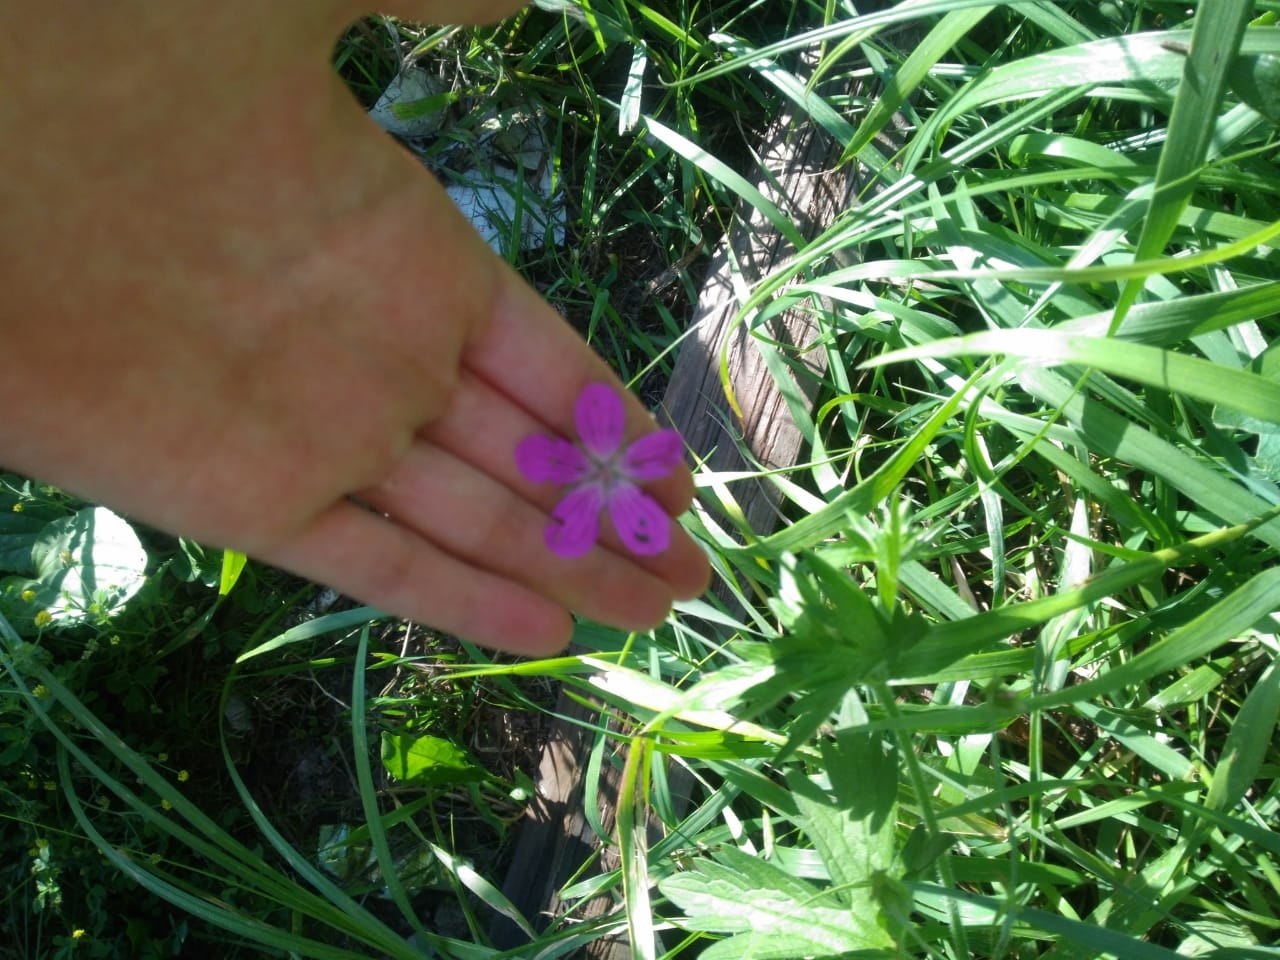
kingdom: Plantae
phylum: Tracheophyta
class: Magnoliopsida
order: Geraniales
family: Geraniaceae
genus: Geranium
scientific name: Geranium palustre
